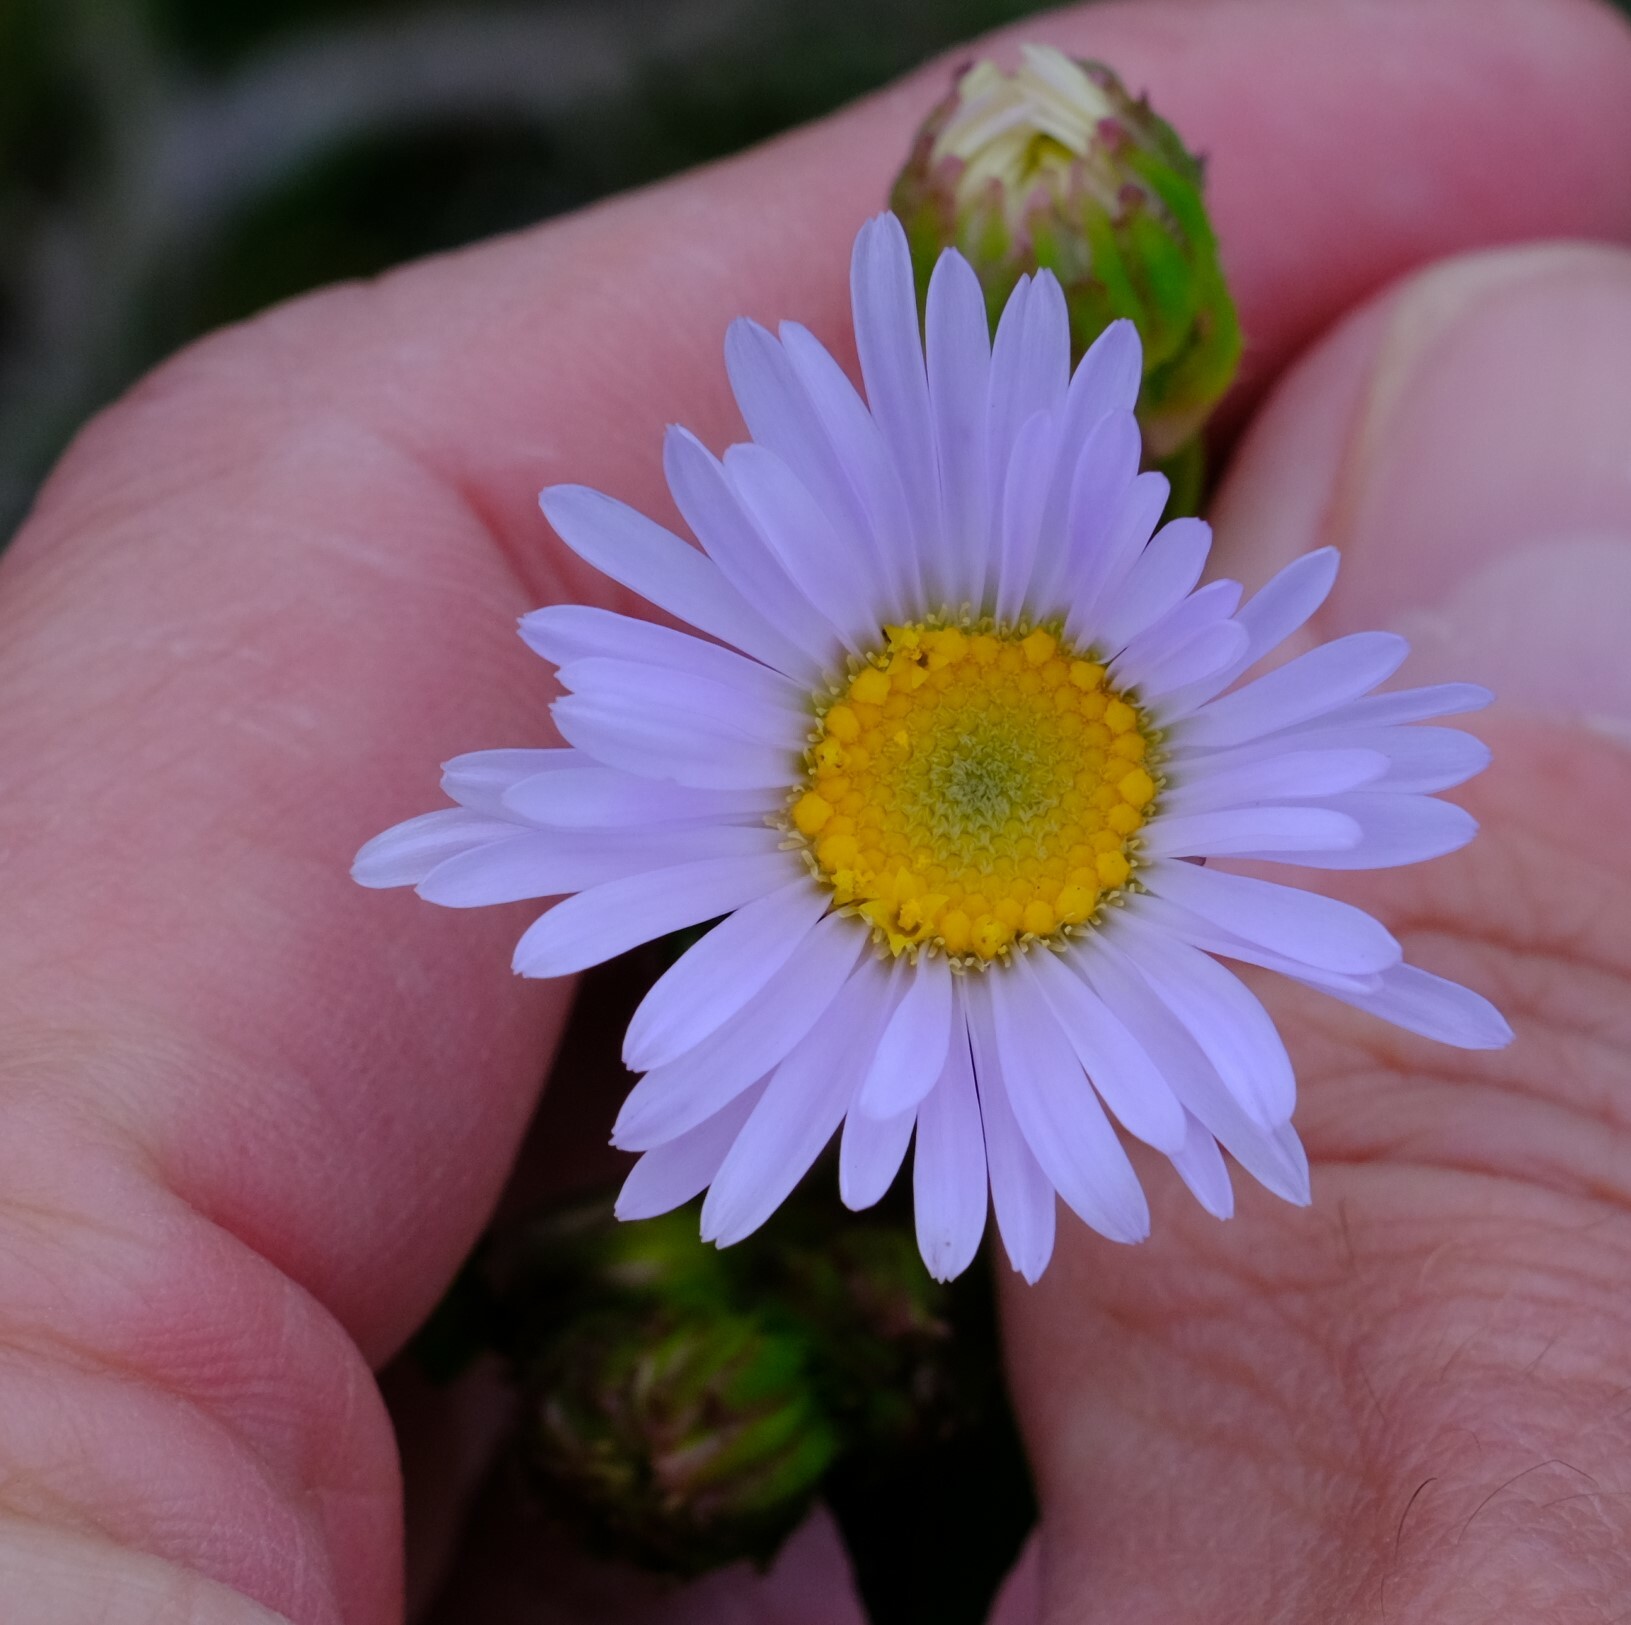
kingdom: Plantae
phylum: Tracheophyta
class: Magnoliopsida
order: Asterales
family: Asteraceae
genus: Pembertonia
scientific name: Pembertonia latisquamea
